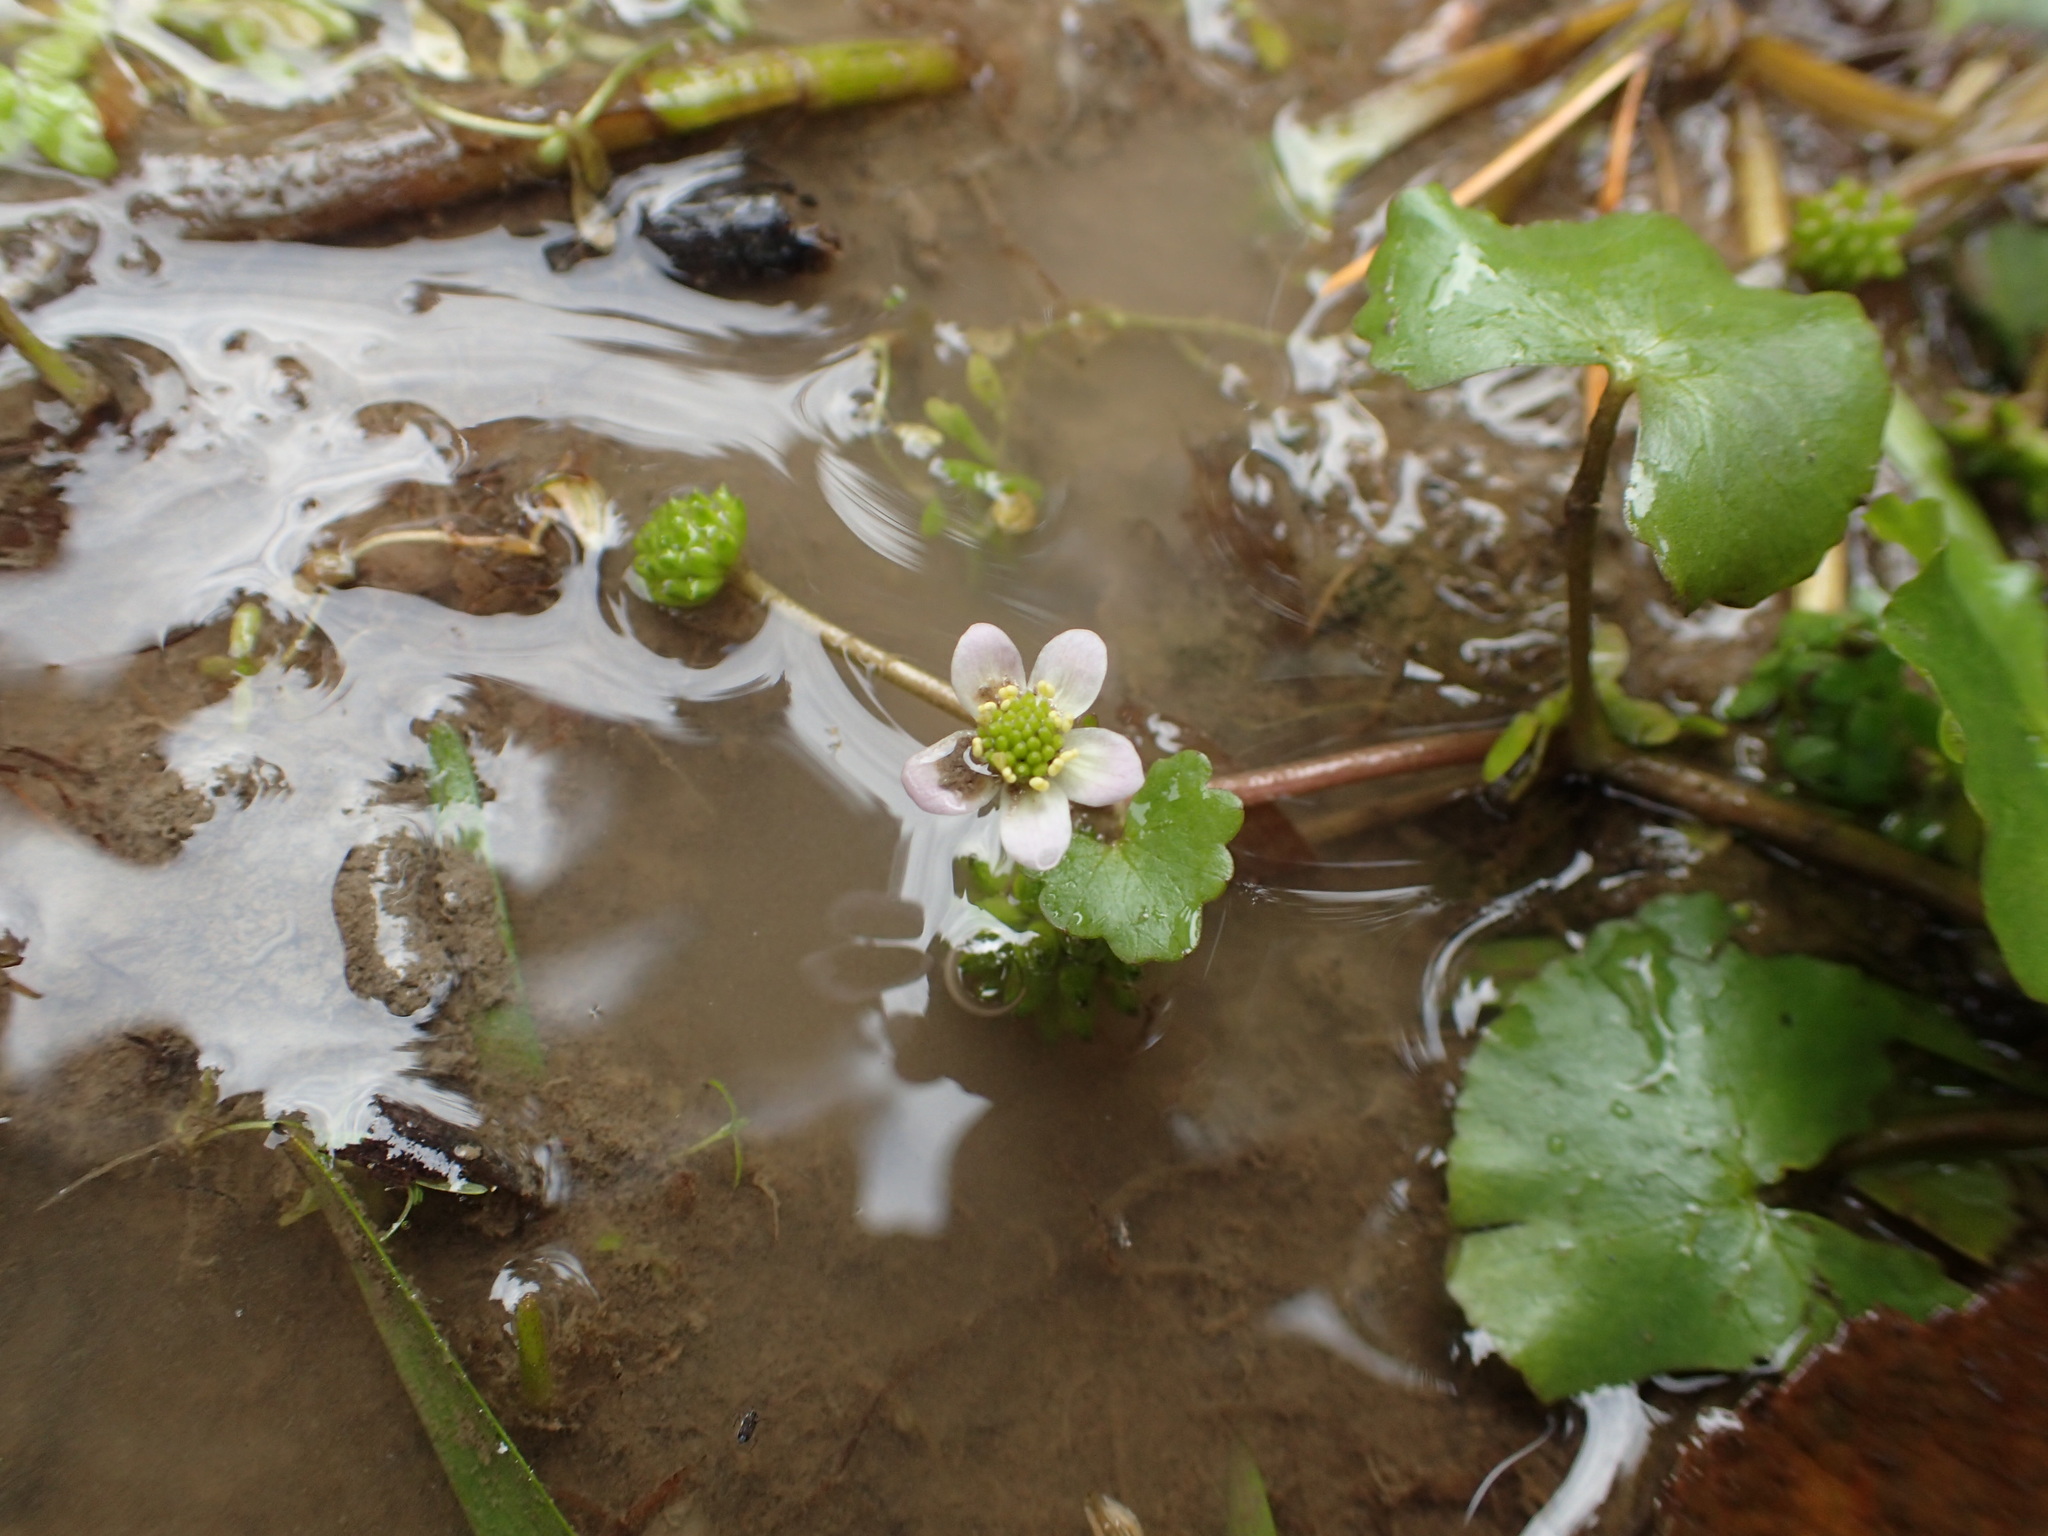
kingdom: Plantae
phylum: Tracheophyta
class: Magnoliopsida
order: Ranunculales
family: Ranunculaceae
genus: Caltha
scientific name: Caltha natans
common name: Floating marsh marigold
